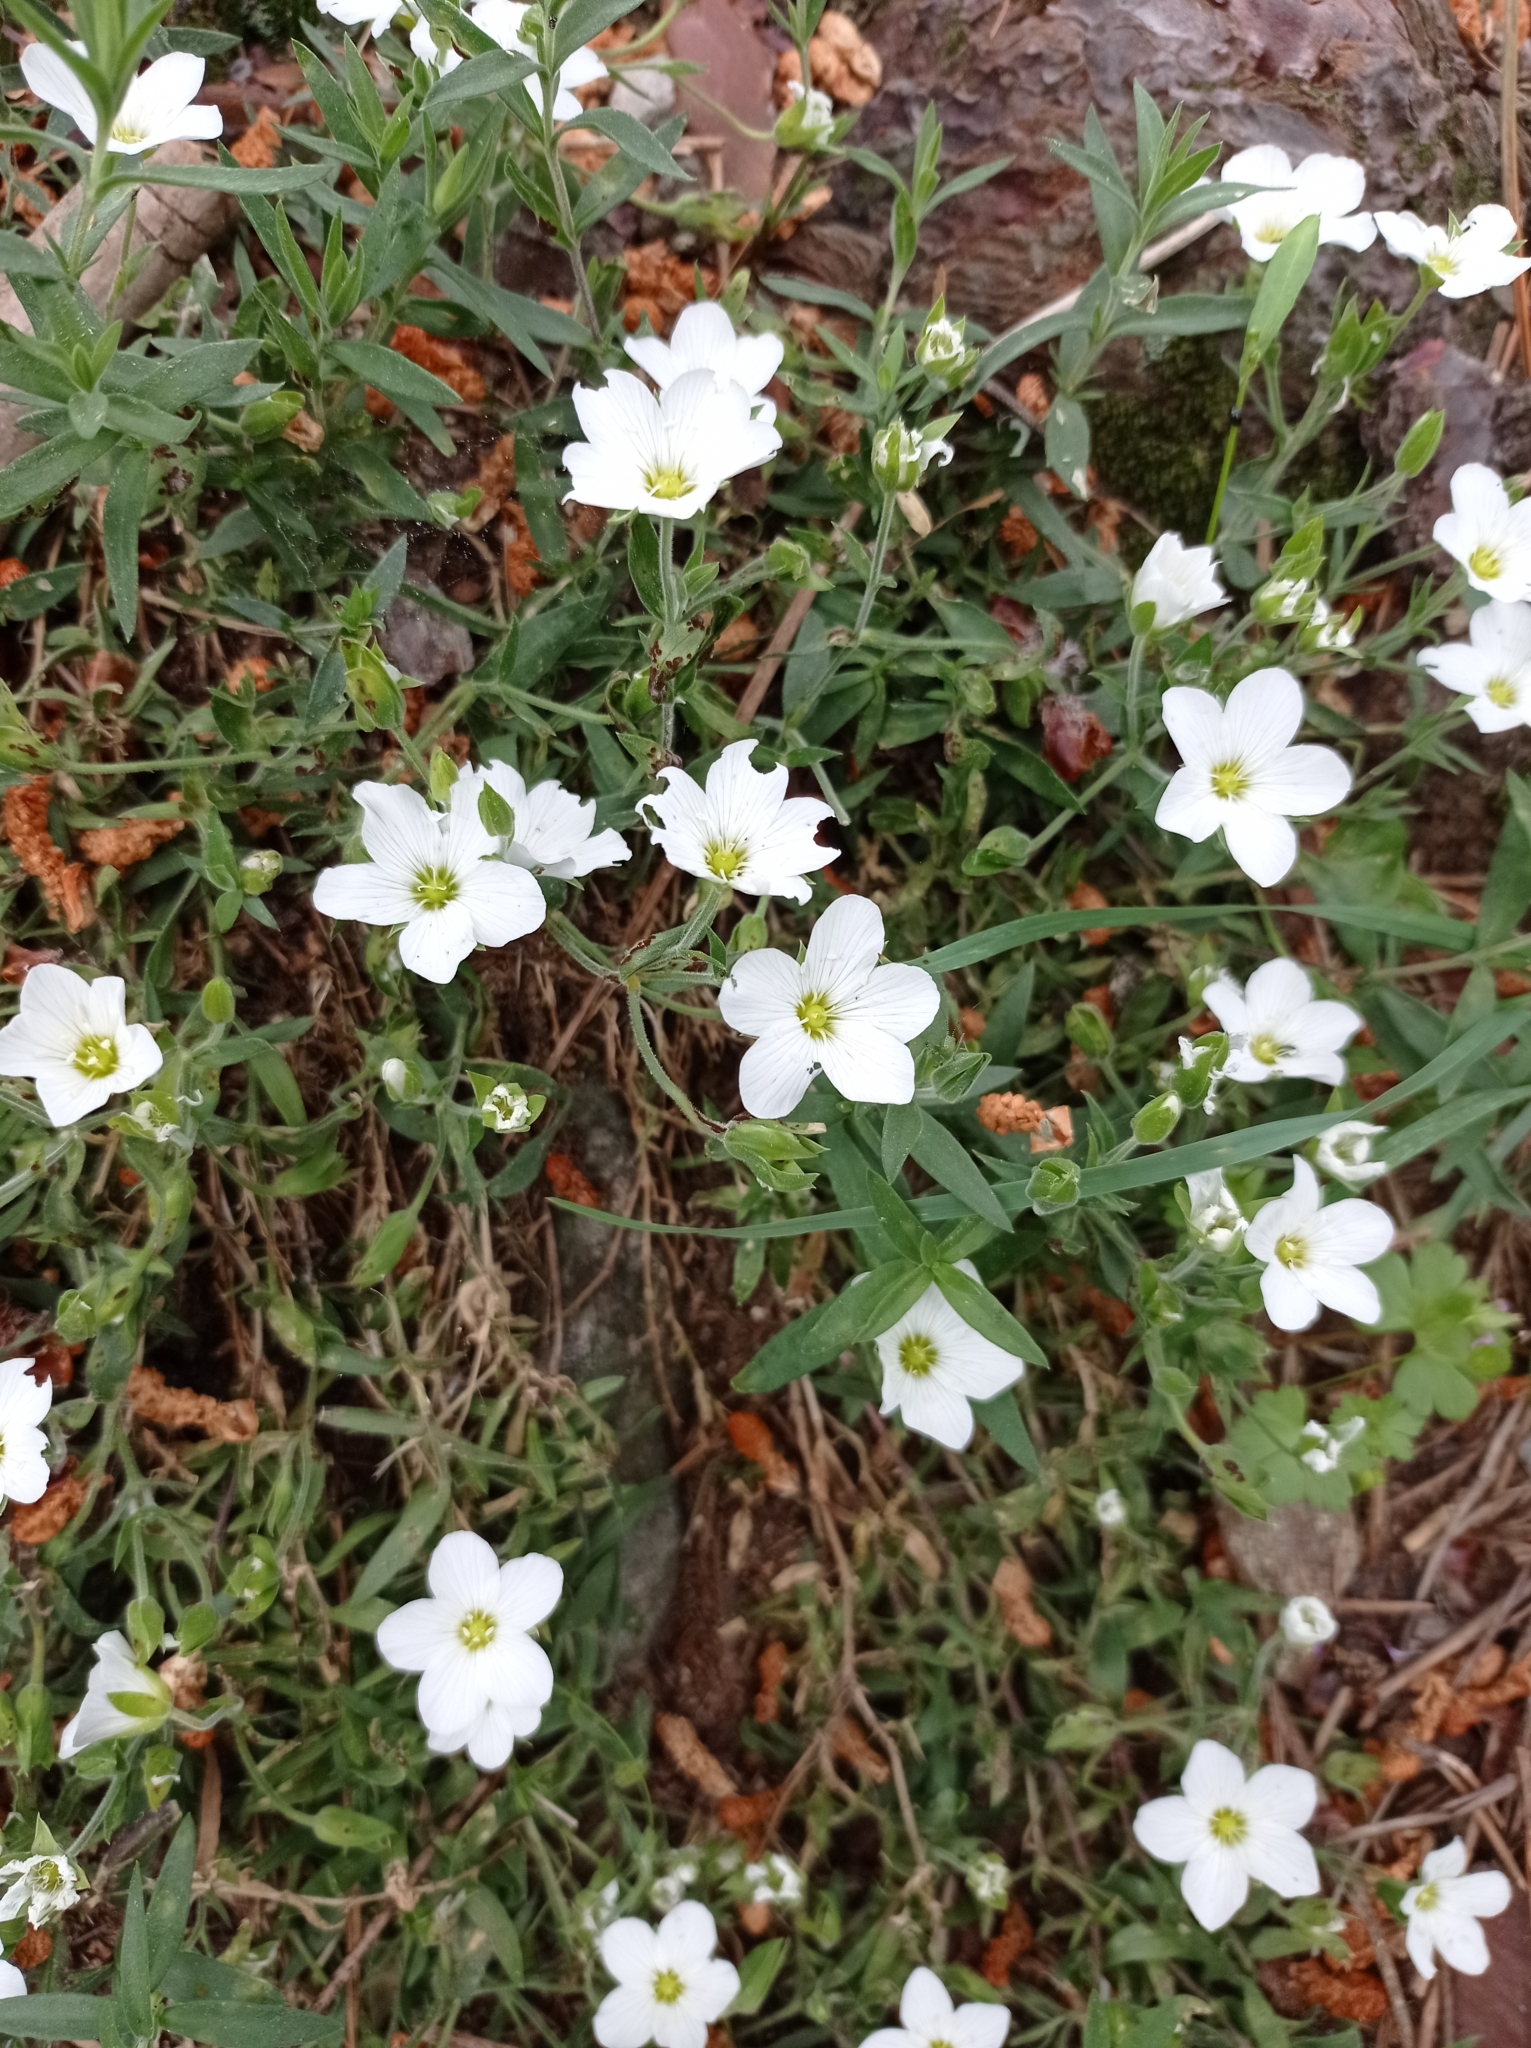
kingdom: Plantae
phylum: Tracheophyta
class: Magnoliopsida
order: Caryophyllales
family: Caryophyllaceae
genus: Arenaria
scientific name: Arenaria montana
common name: Mountain sandwort
